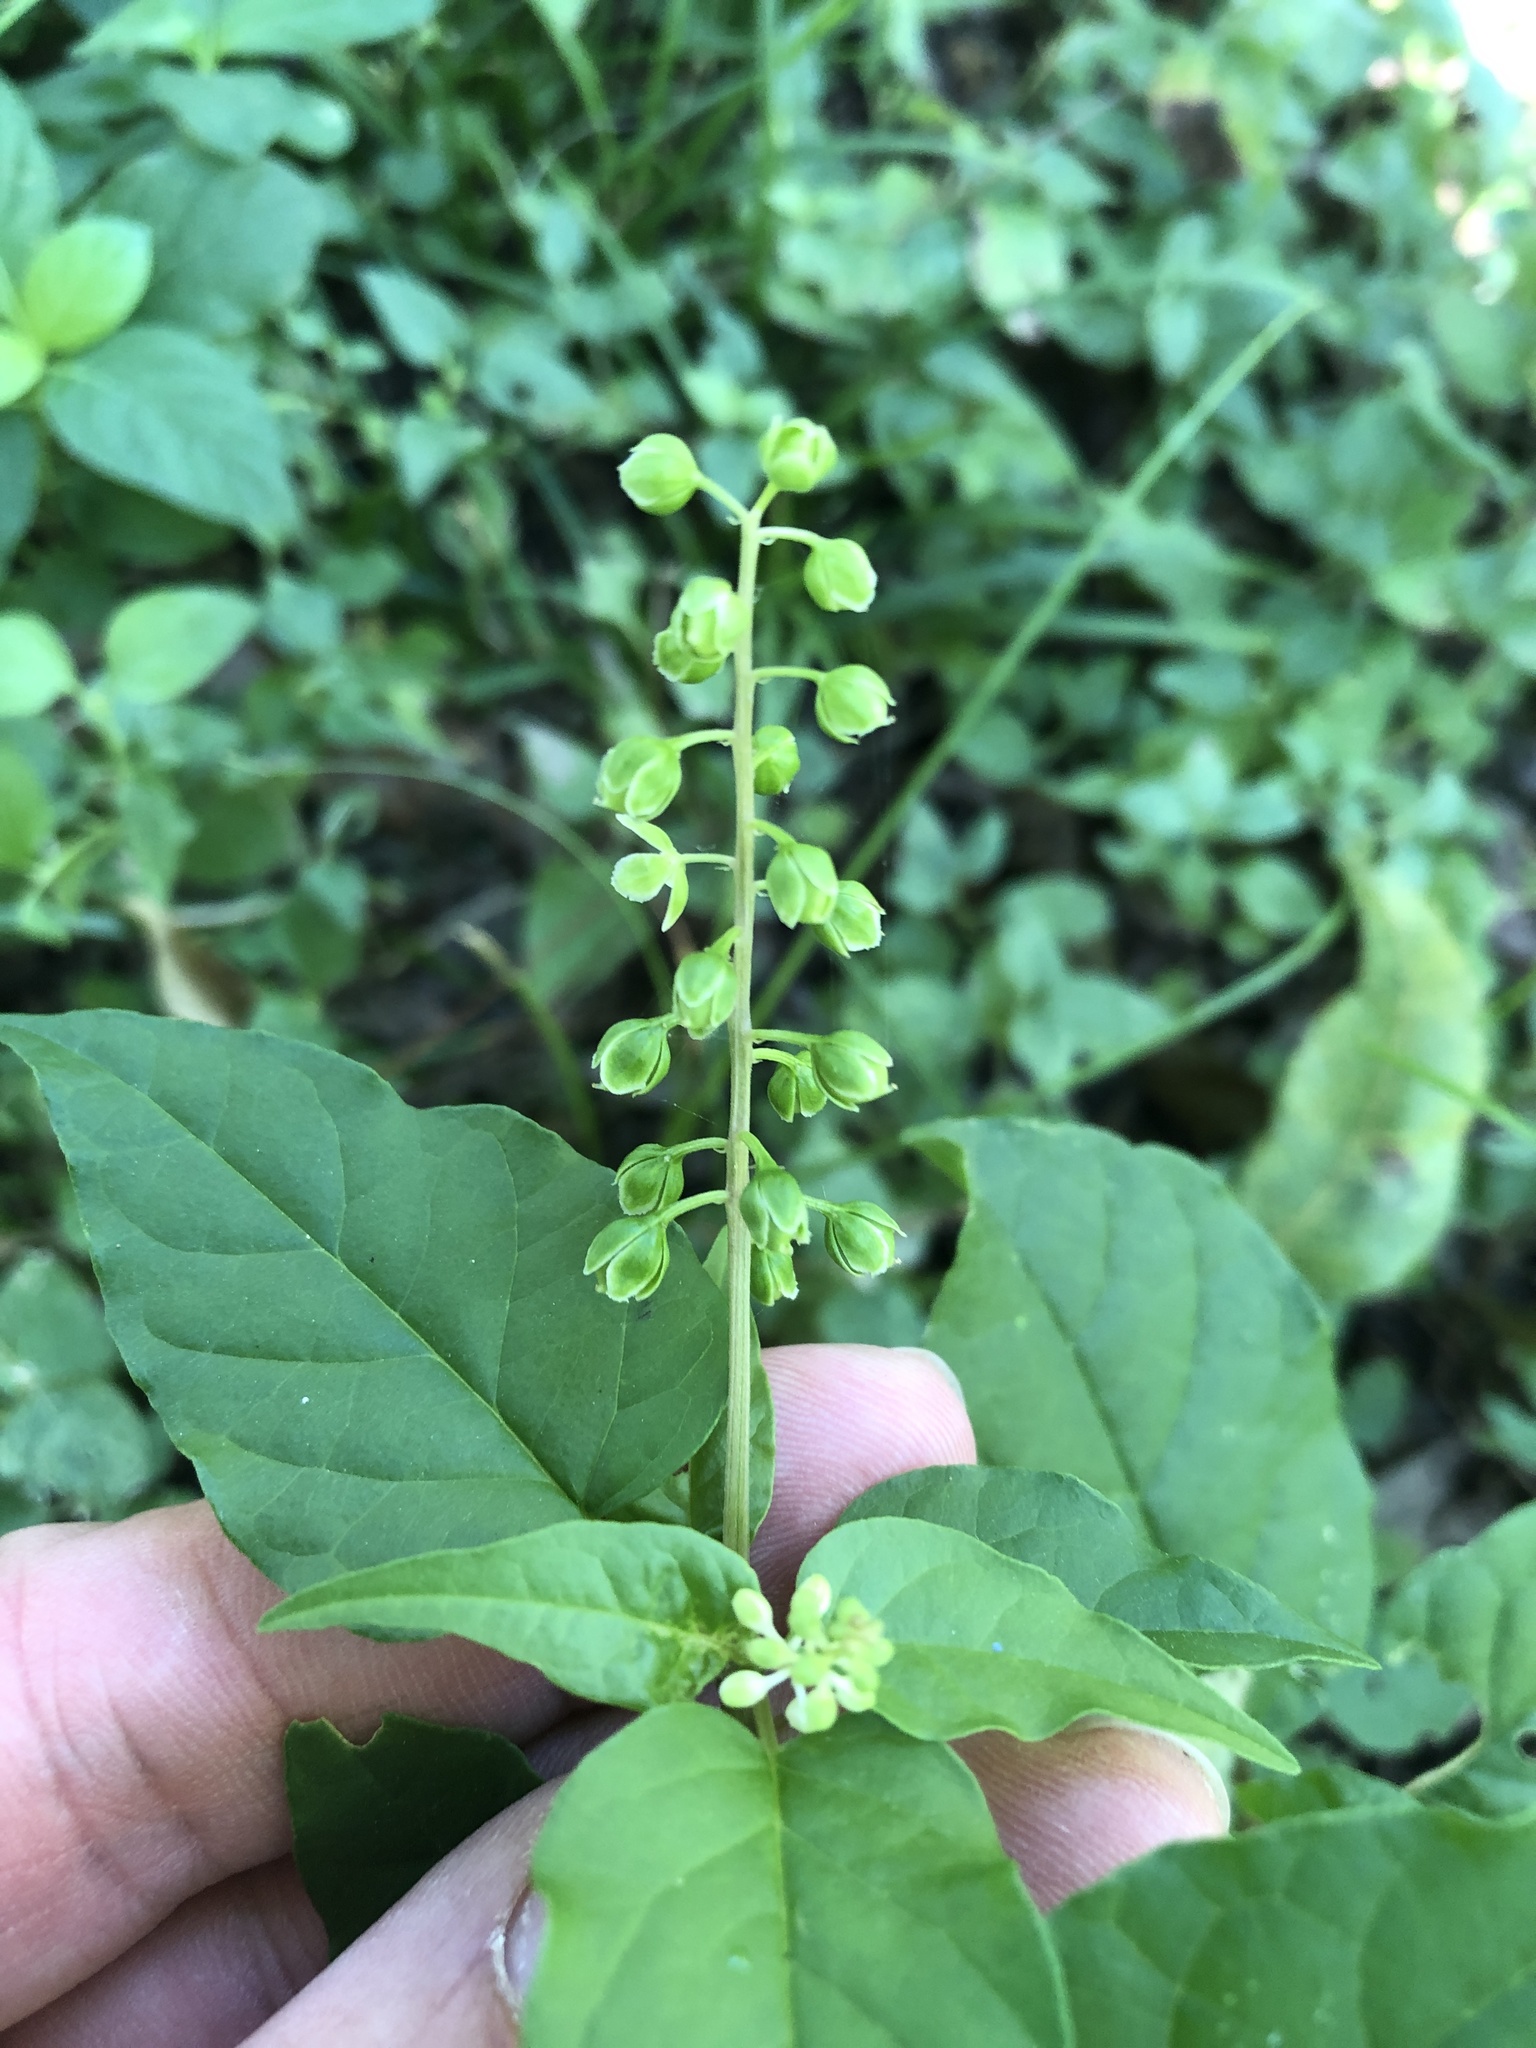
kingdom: Plantae
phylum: Tracheophyta
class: Magnoliopsida
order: Caryophyllales
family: Phytolaccaceae
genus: Rivina
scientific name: Rivina humilis
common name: Rougeplant
